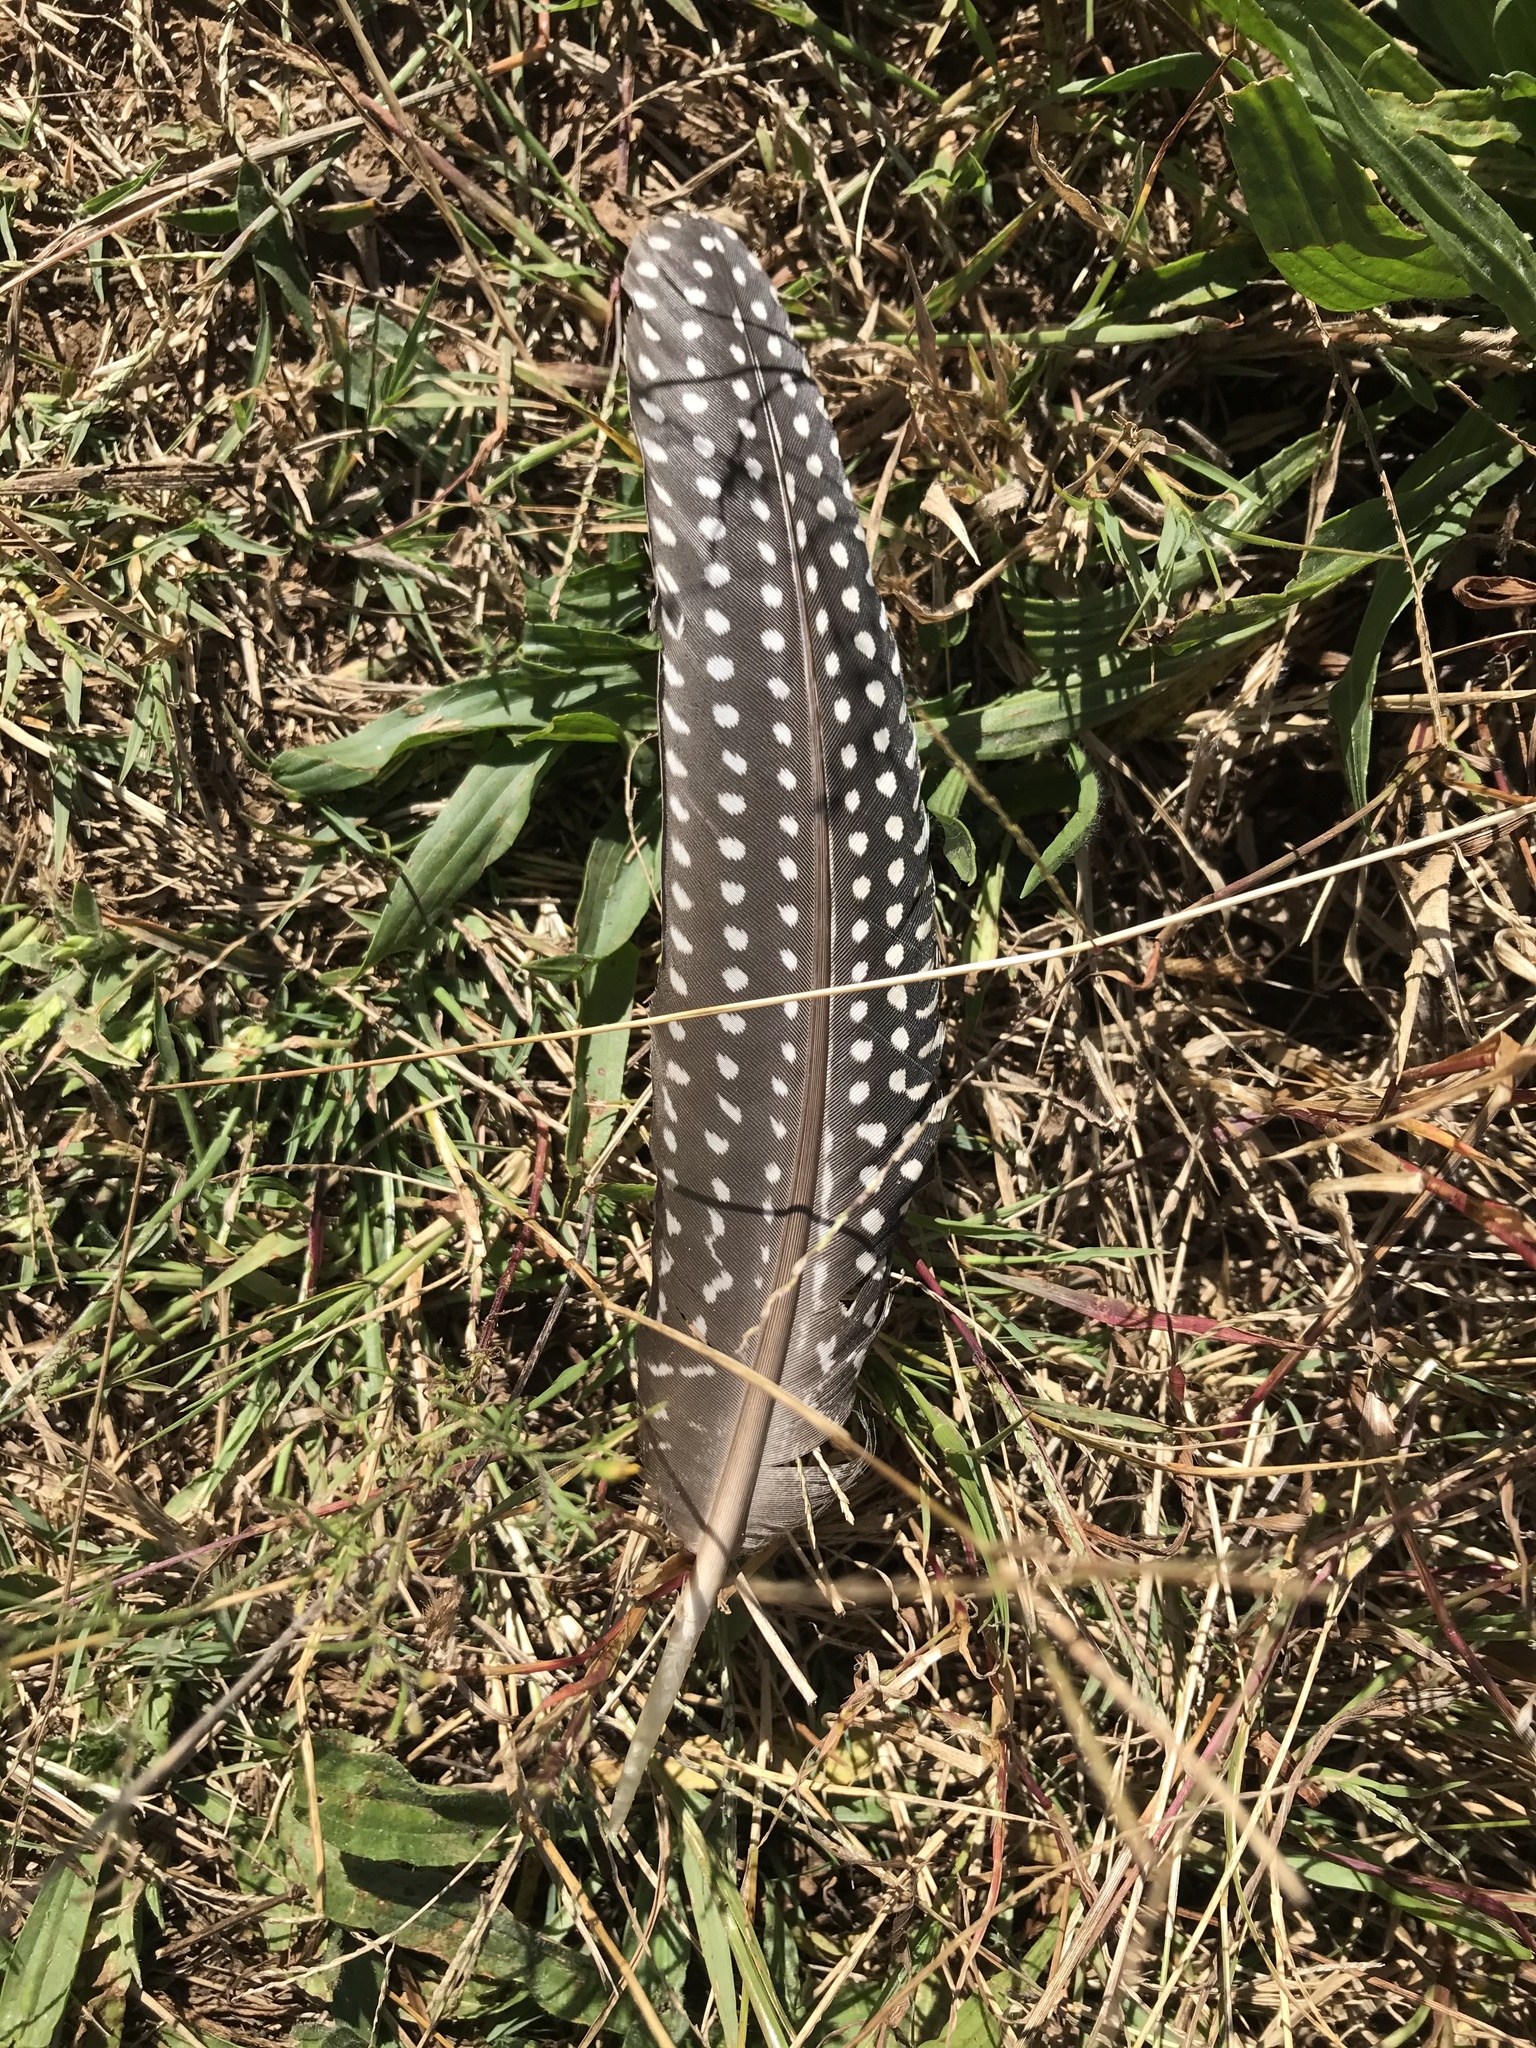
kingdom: Animalia
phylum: Chordata
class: Aves
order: Galliformes
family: Numididae
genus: Numida
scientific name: Numida meleagris
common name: Helmeted guineafowl
